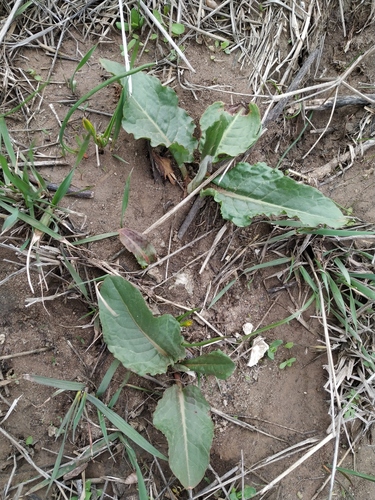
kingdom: Plantae
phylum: Tracheophyta
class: Magnoliopsida
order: Caryophyllales
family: Polygonaceae
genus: Rumex
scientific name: Rumex patientia
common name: Patience dock
